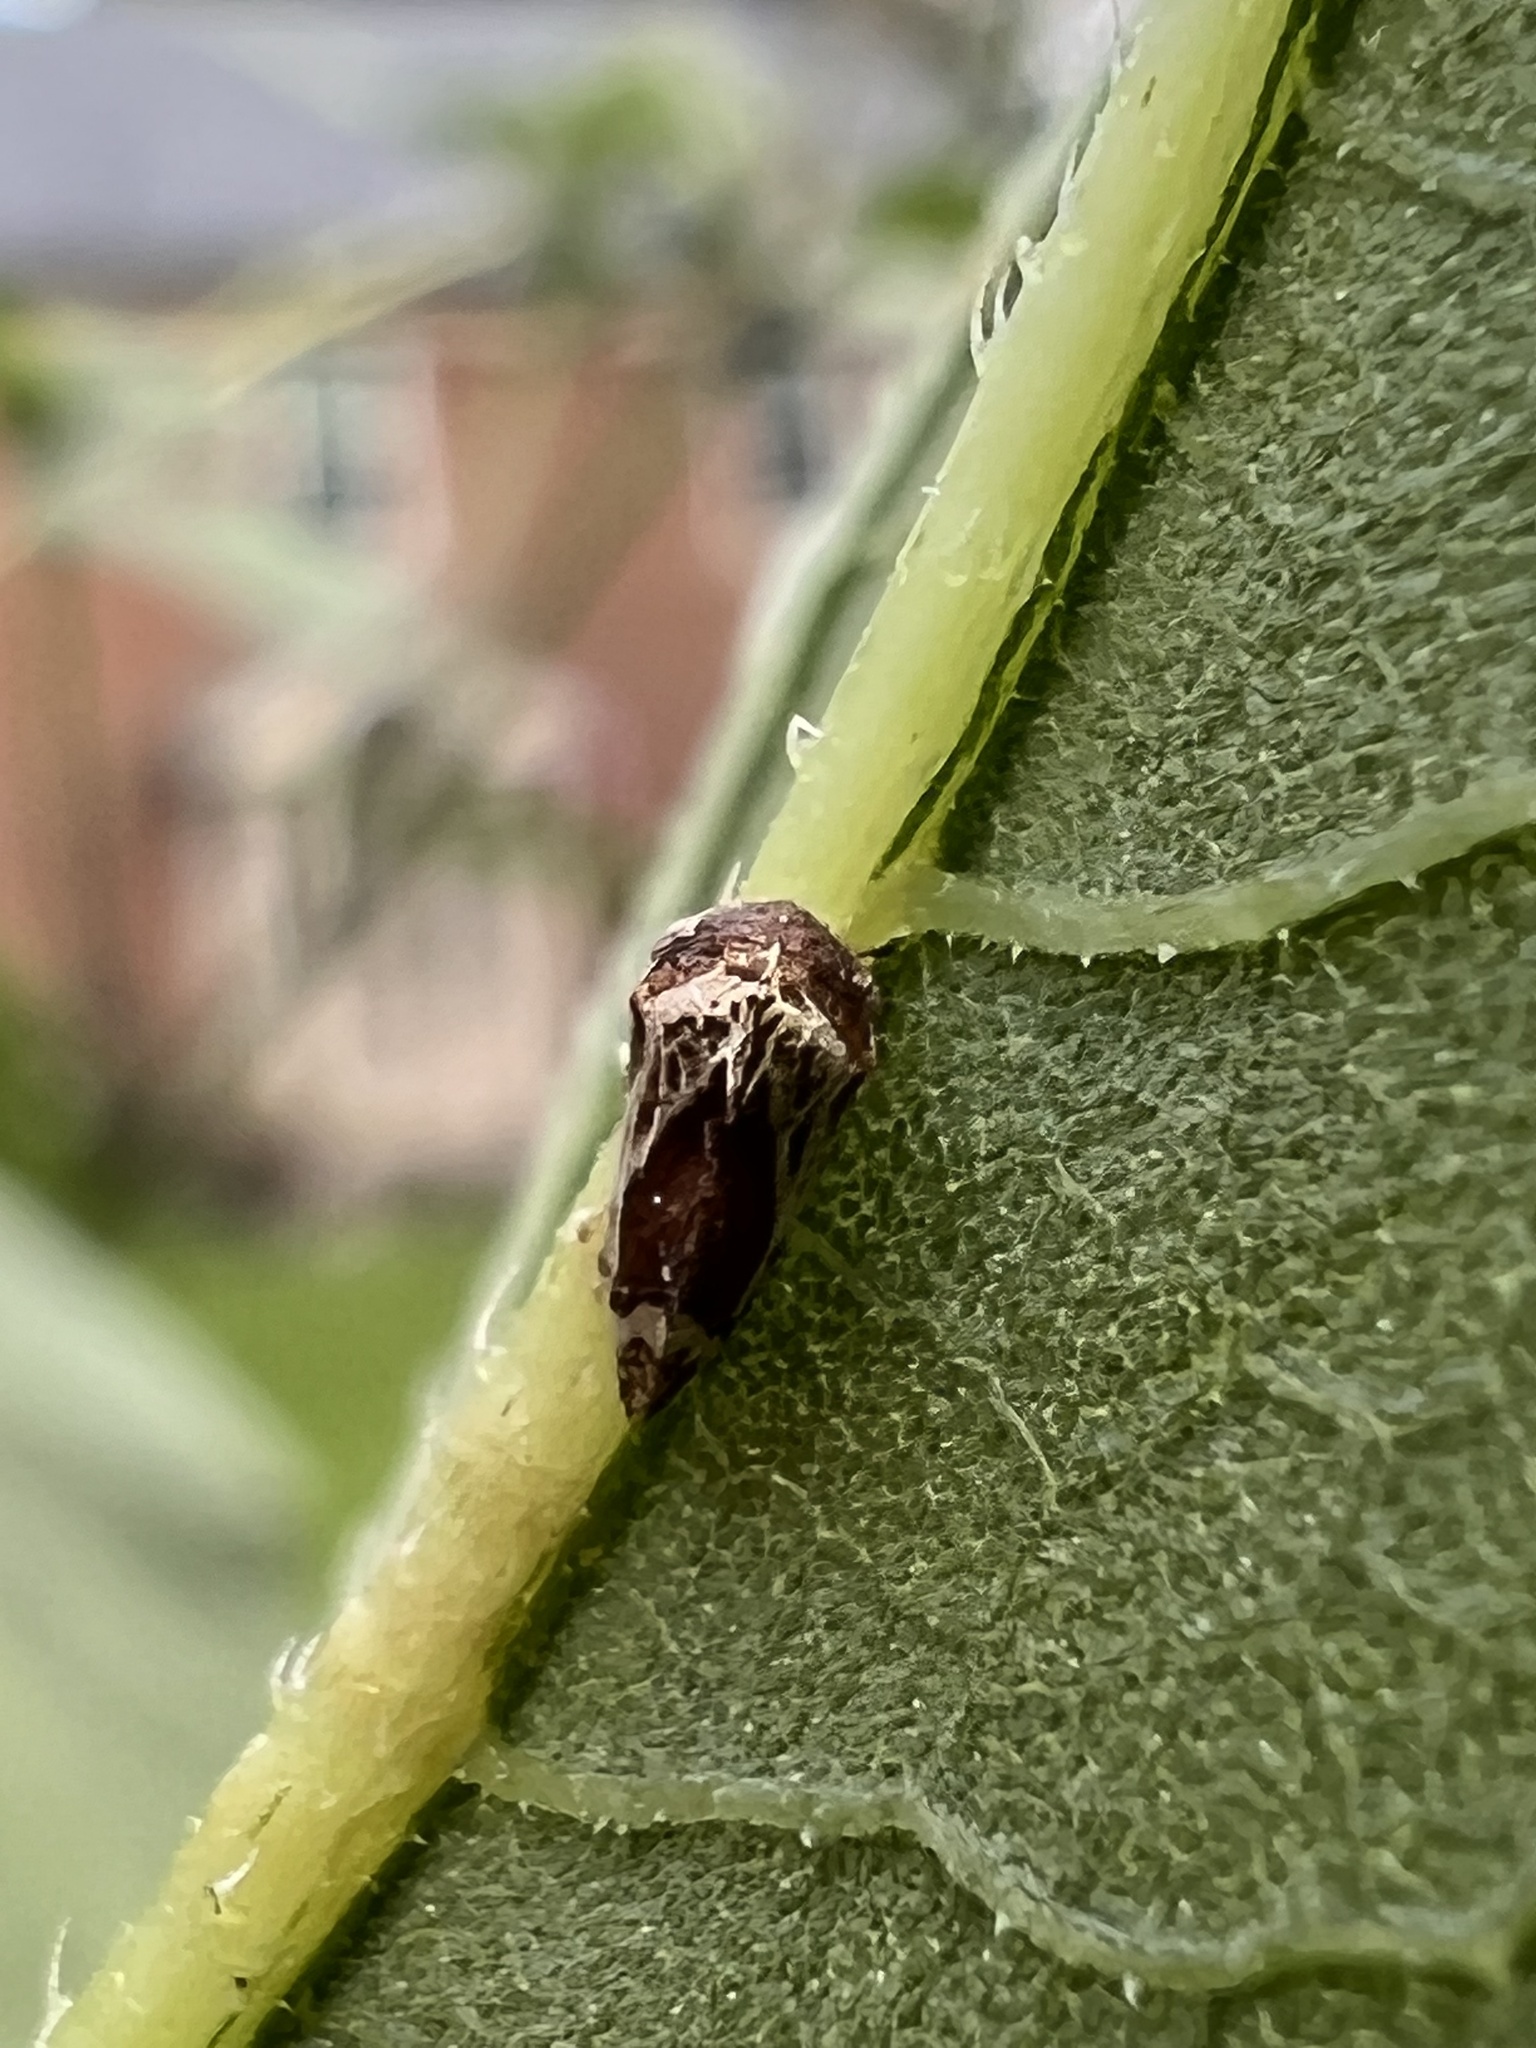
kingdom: Animalia
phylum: Arthropoda
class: Insecta
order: Hemiptera
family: Membracidae
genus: Entylia
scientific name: Entylia carinata
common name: Keeled treehopper
